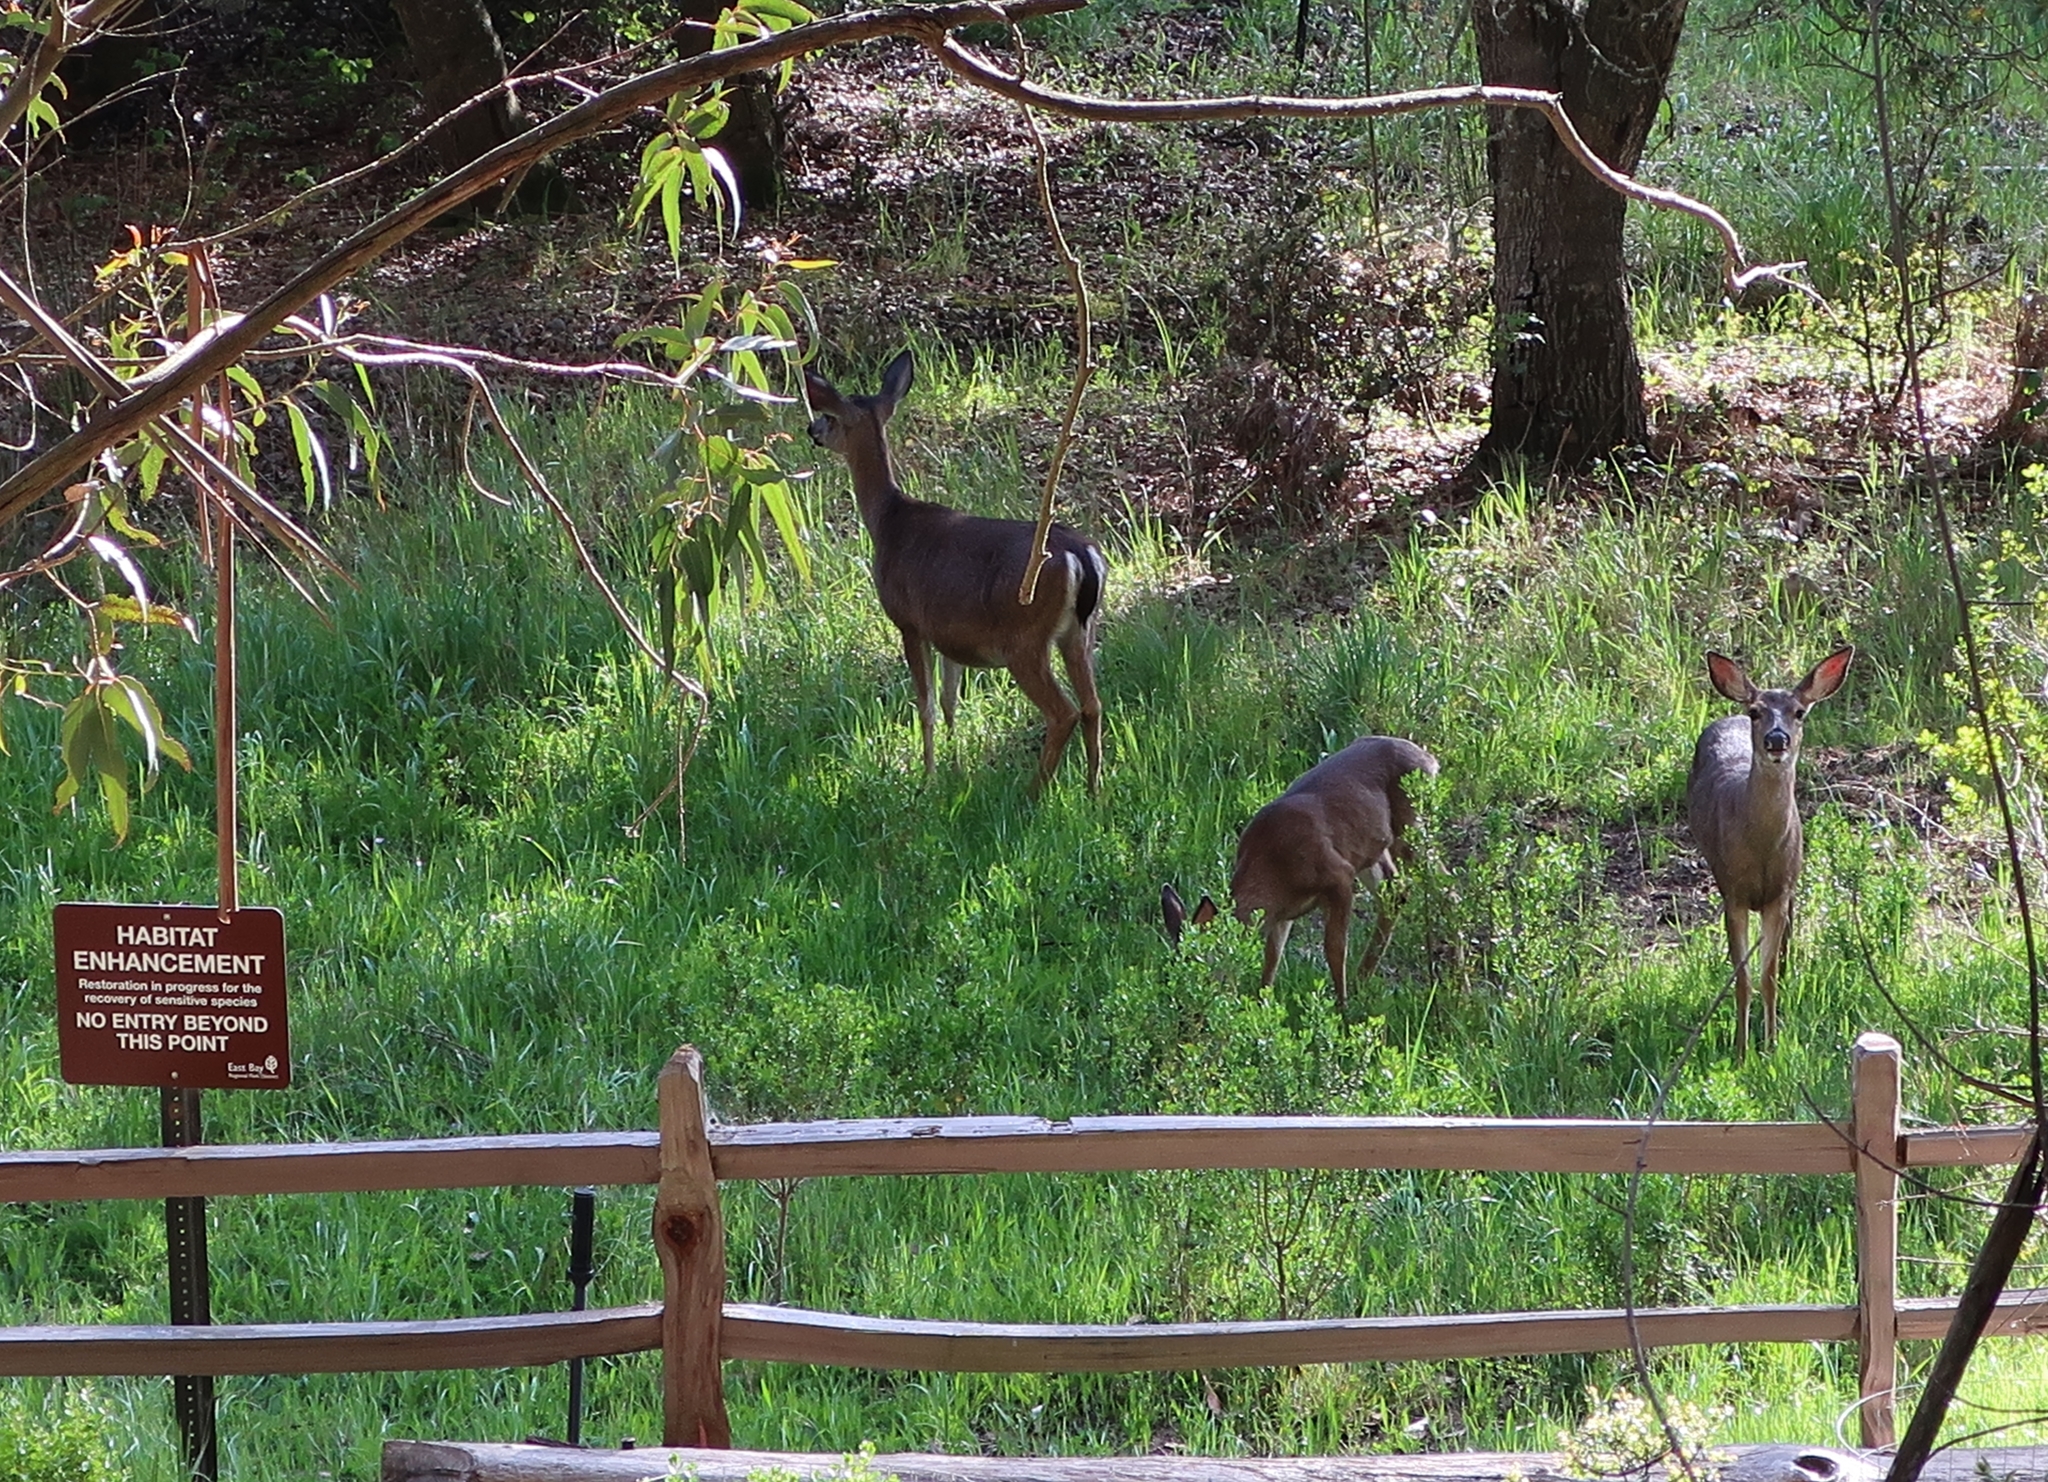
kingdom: Animalia
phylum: Chordata
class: Mammalia
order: Artiodactyla
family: Cervidae
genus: Odocoileus
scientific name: Odocoileus hemionus
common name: Mule deer
